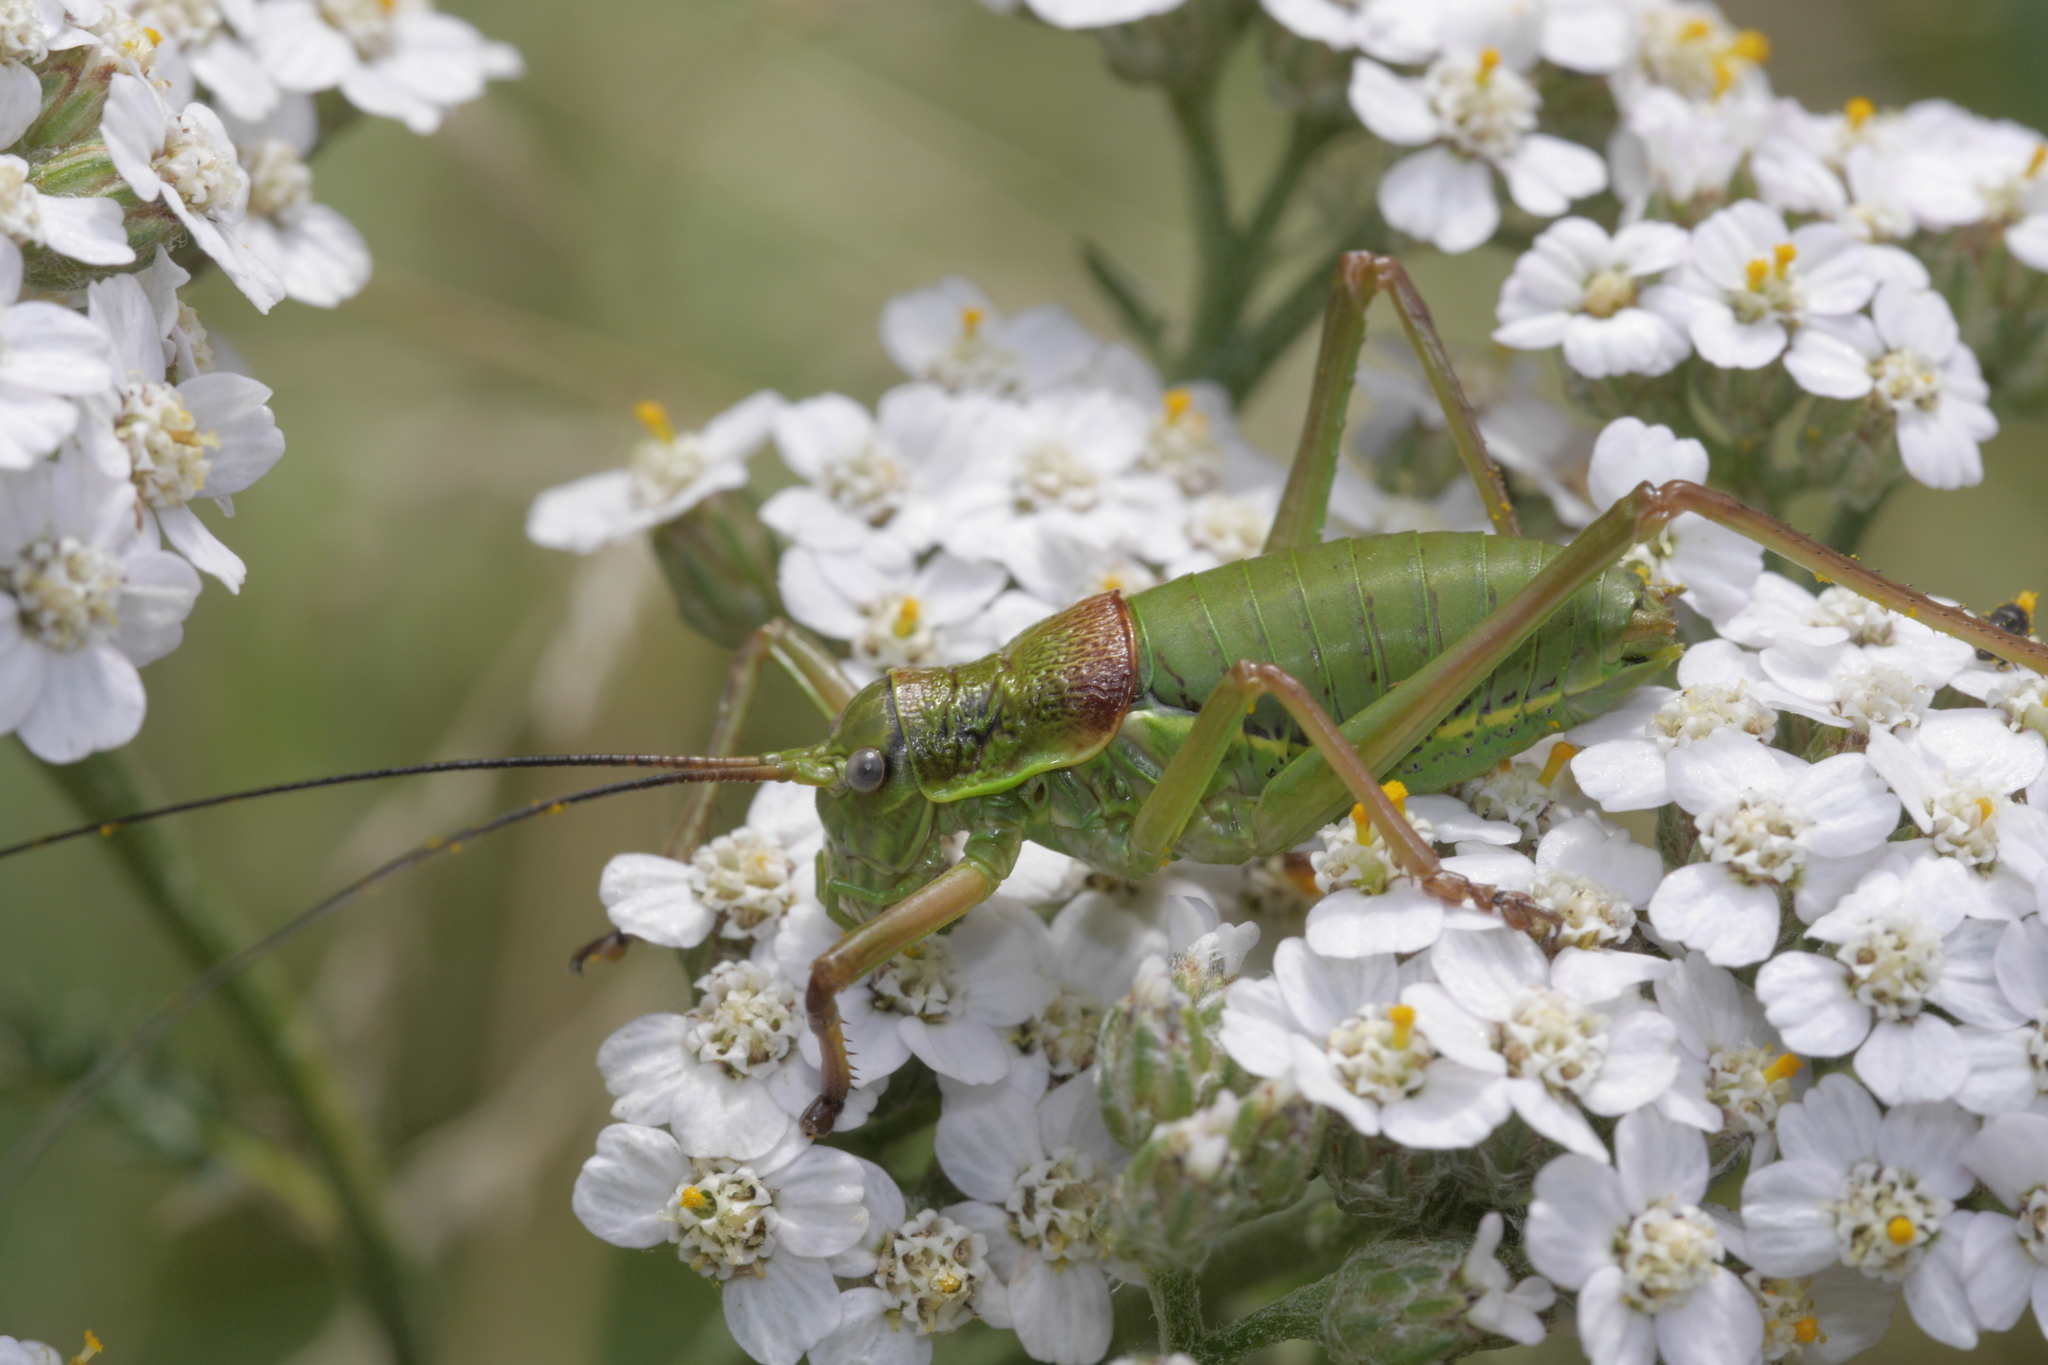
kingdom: Animalia
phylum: Arthropoda
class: Insecta
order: Orthoptera
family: Tettigoniidae
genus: Ephippiger
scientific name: Ephippiger diurnus
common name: Western saddle bush-cricket
